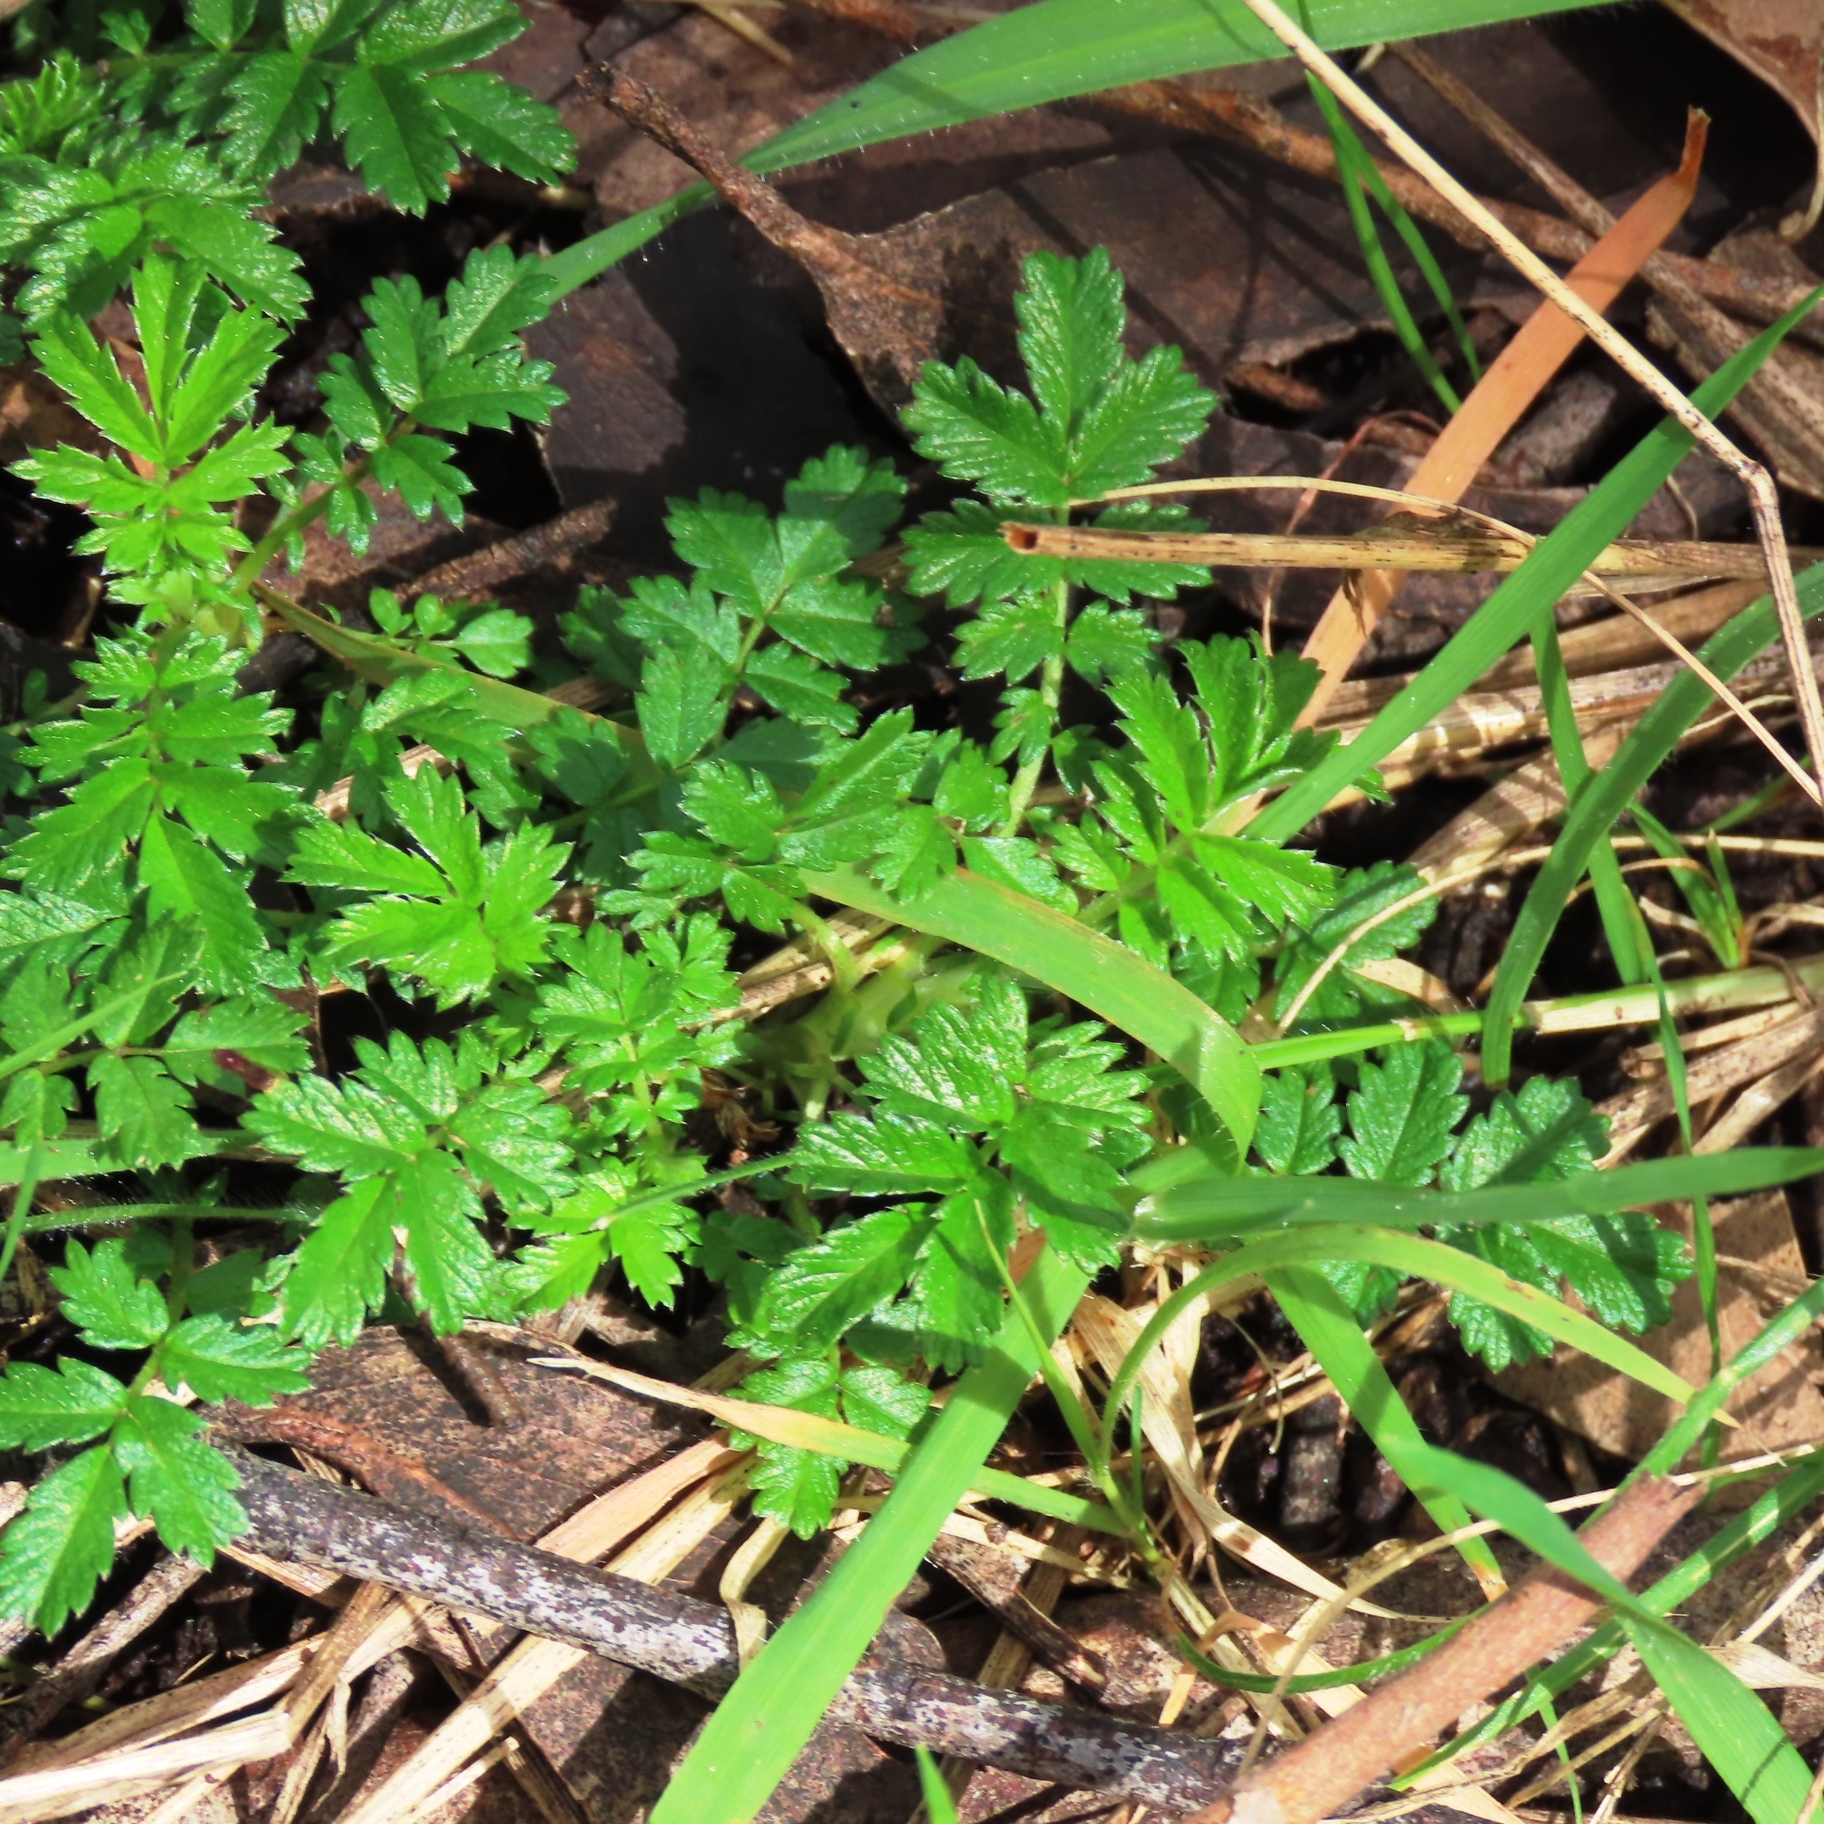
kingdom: Plantae
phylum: Tracheophyta
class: Magnoliopsida
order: Rosales
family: Rosaceae
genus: Acaena
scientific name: Acaena novae-zelandiae
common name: Pirri-pirri-bur
